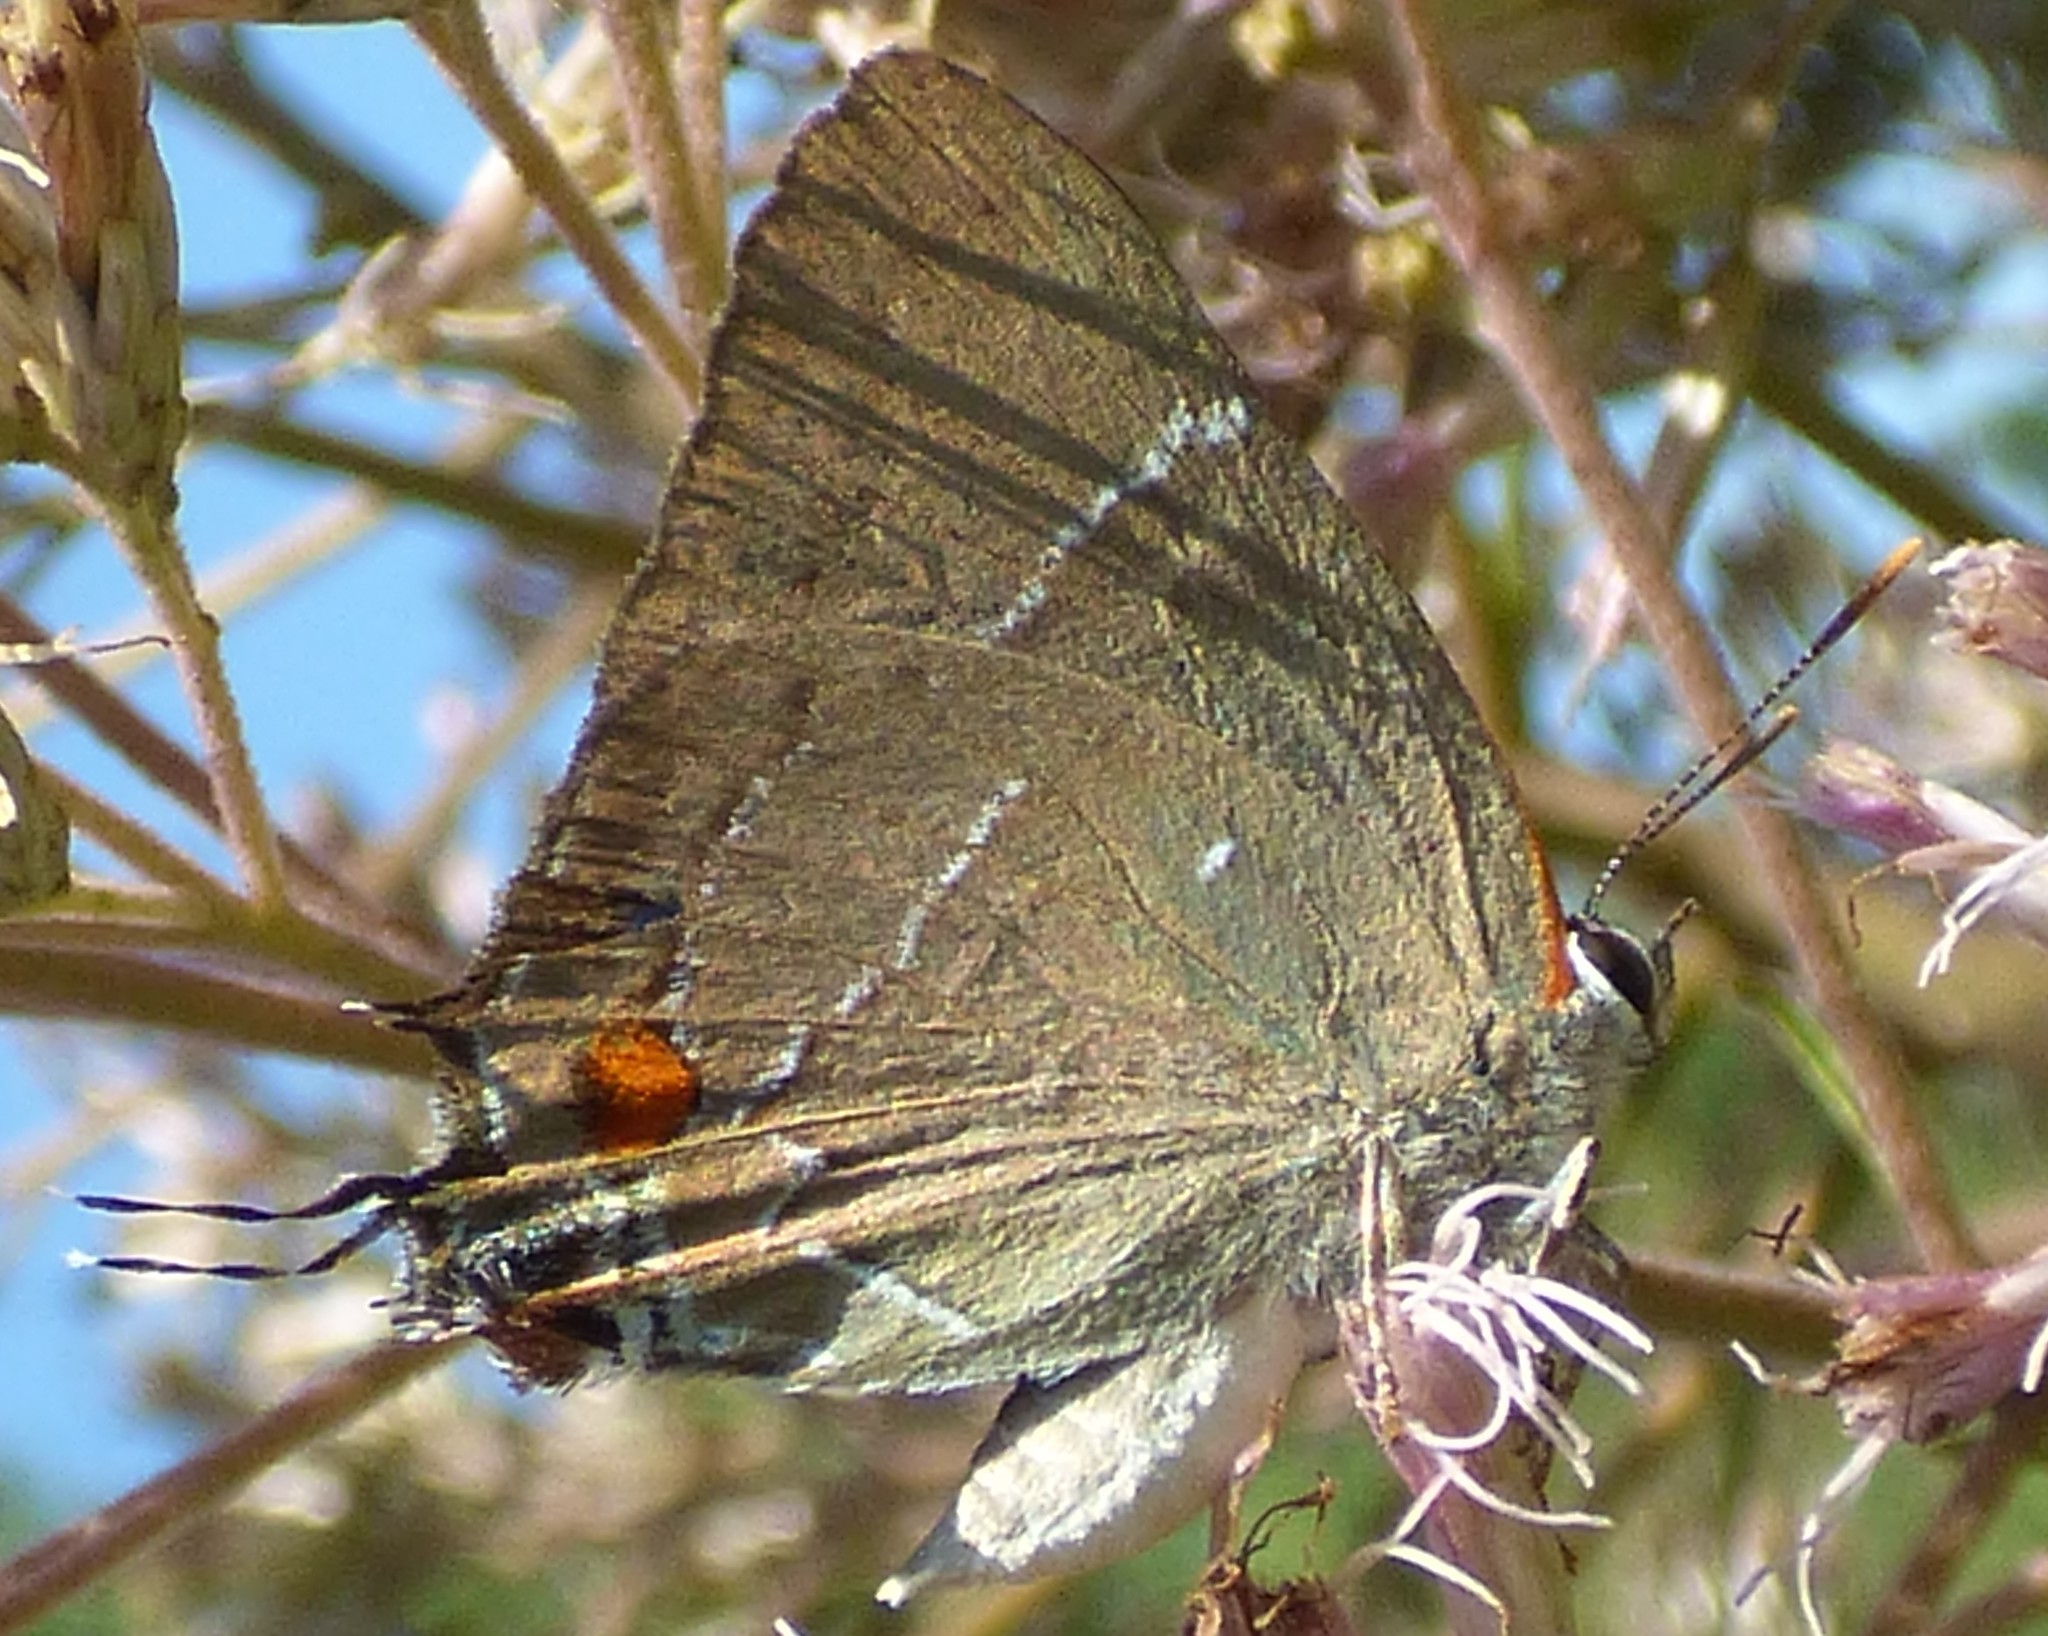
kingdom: Animalia
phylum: Arthropoda
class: Insecta
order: Lepidoptera
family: Lycaenidae
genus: Parrhasius
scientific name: Parrhasius m-album
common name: White m hairstreak
